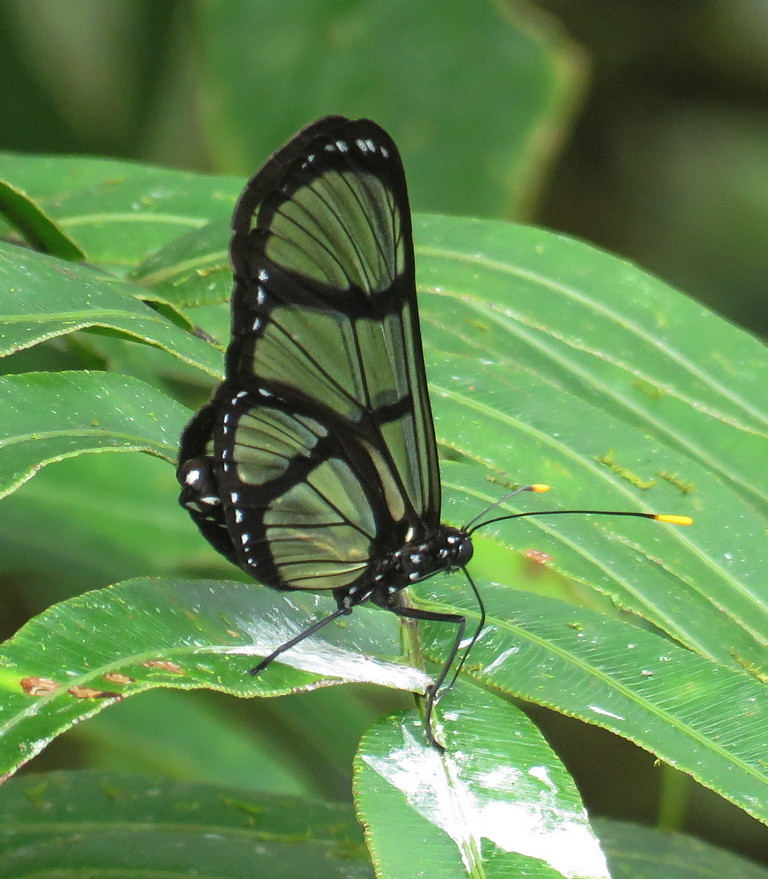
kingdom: Animalia
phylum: Arthropoda
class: Insecta
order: Lepidoptera
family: Nymphalidae
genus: Methona
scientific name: Methona confusa
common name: Confusa tigerwing
